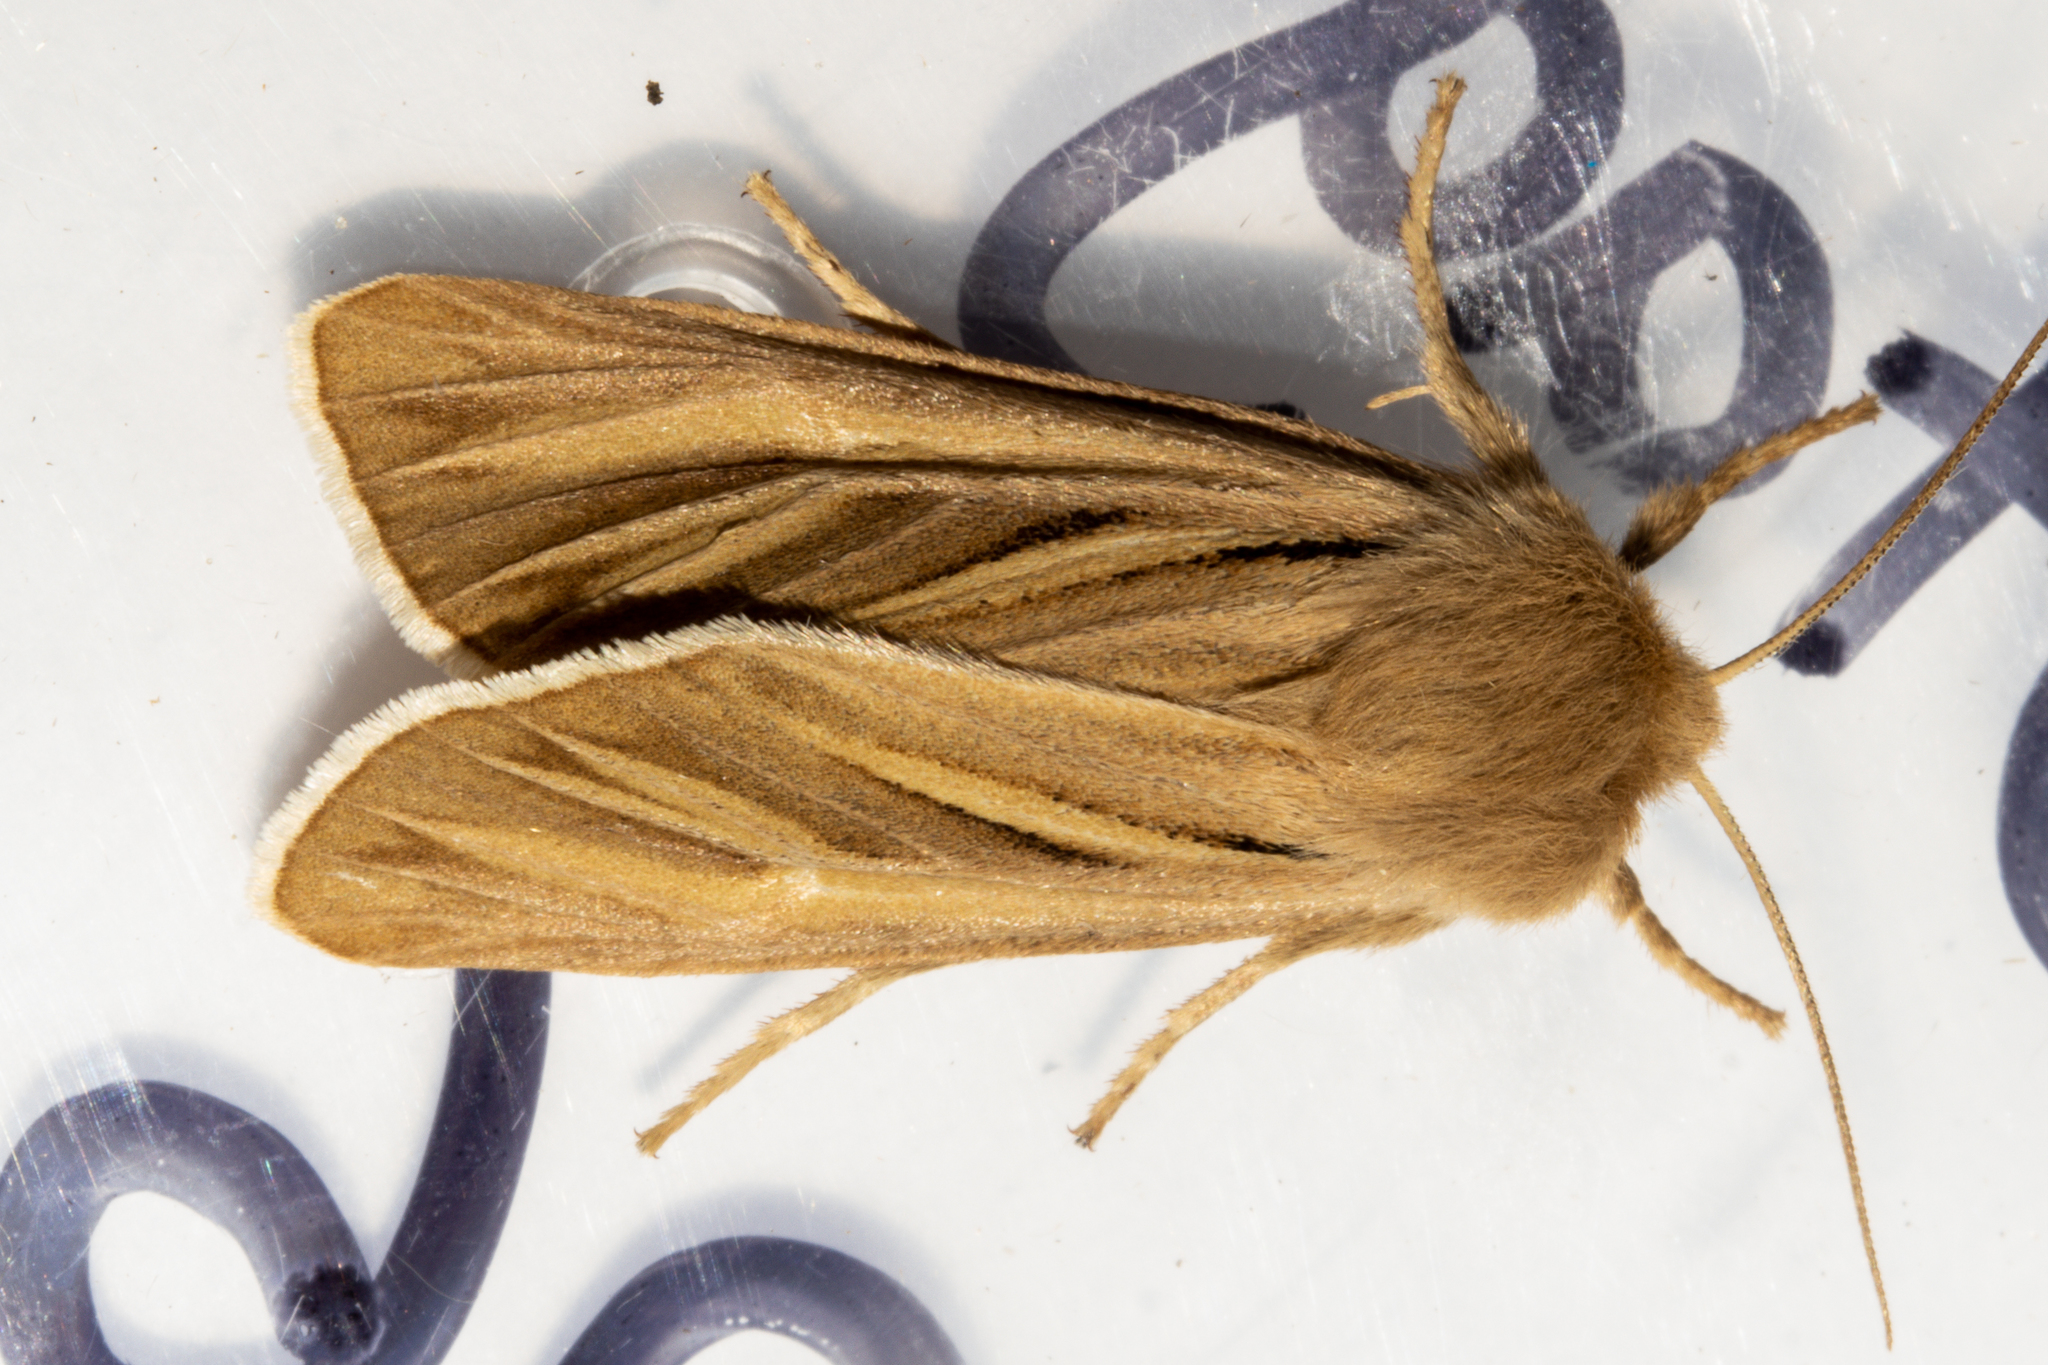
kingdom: Animalia
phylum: Arthropoda
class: Insecta
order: Lepidoptera
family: Noctuidae
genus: Ichneutica
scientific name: Ichneutica caraunias
